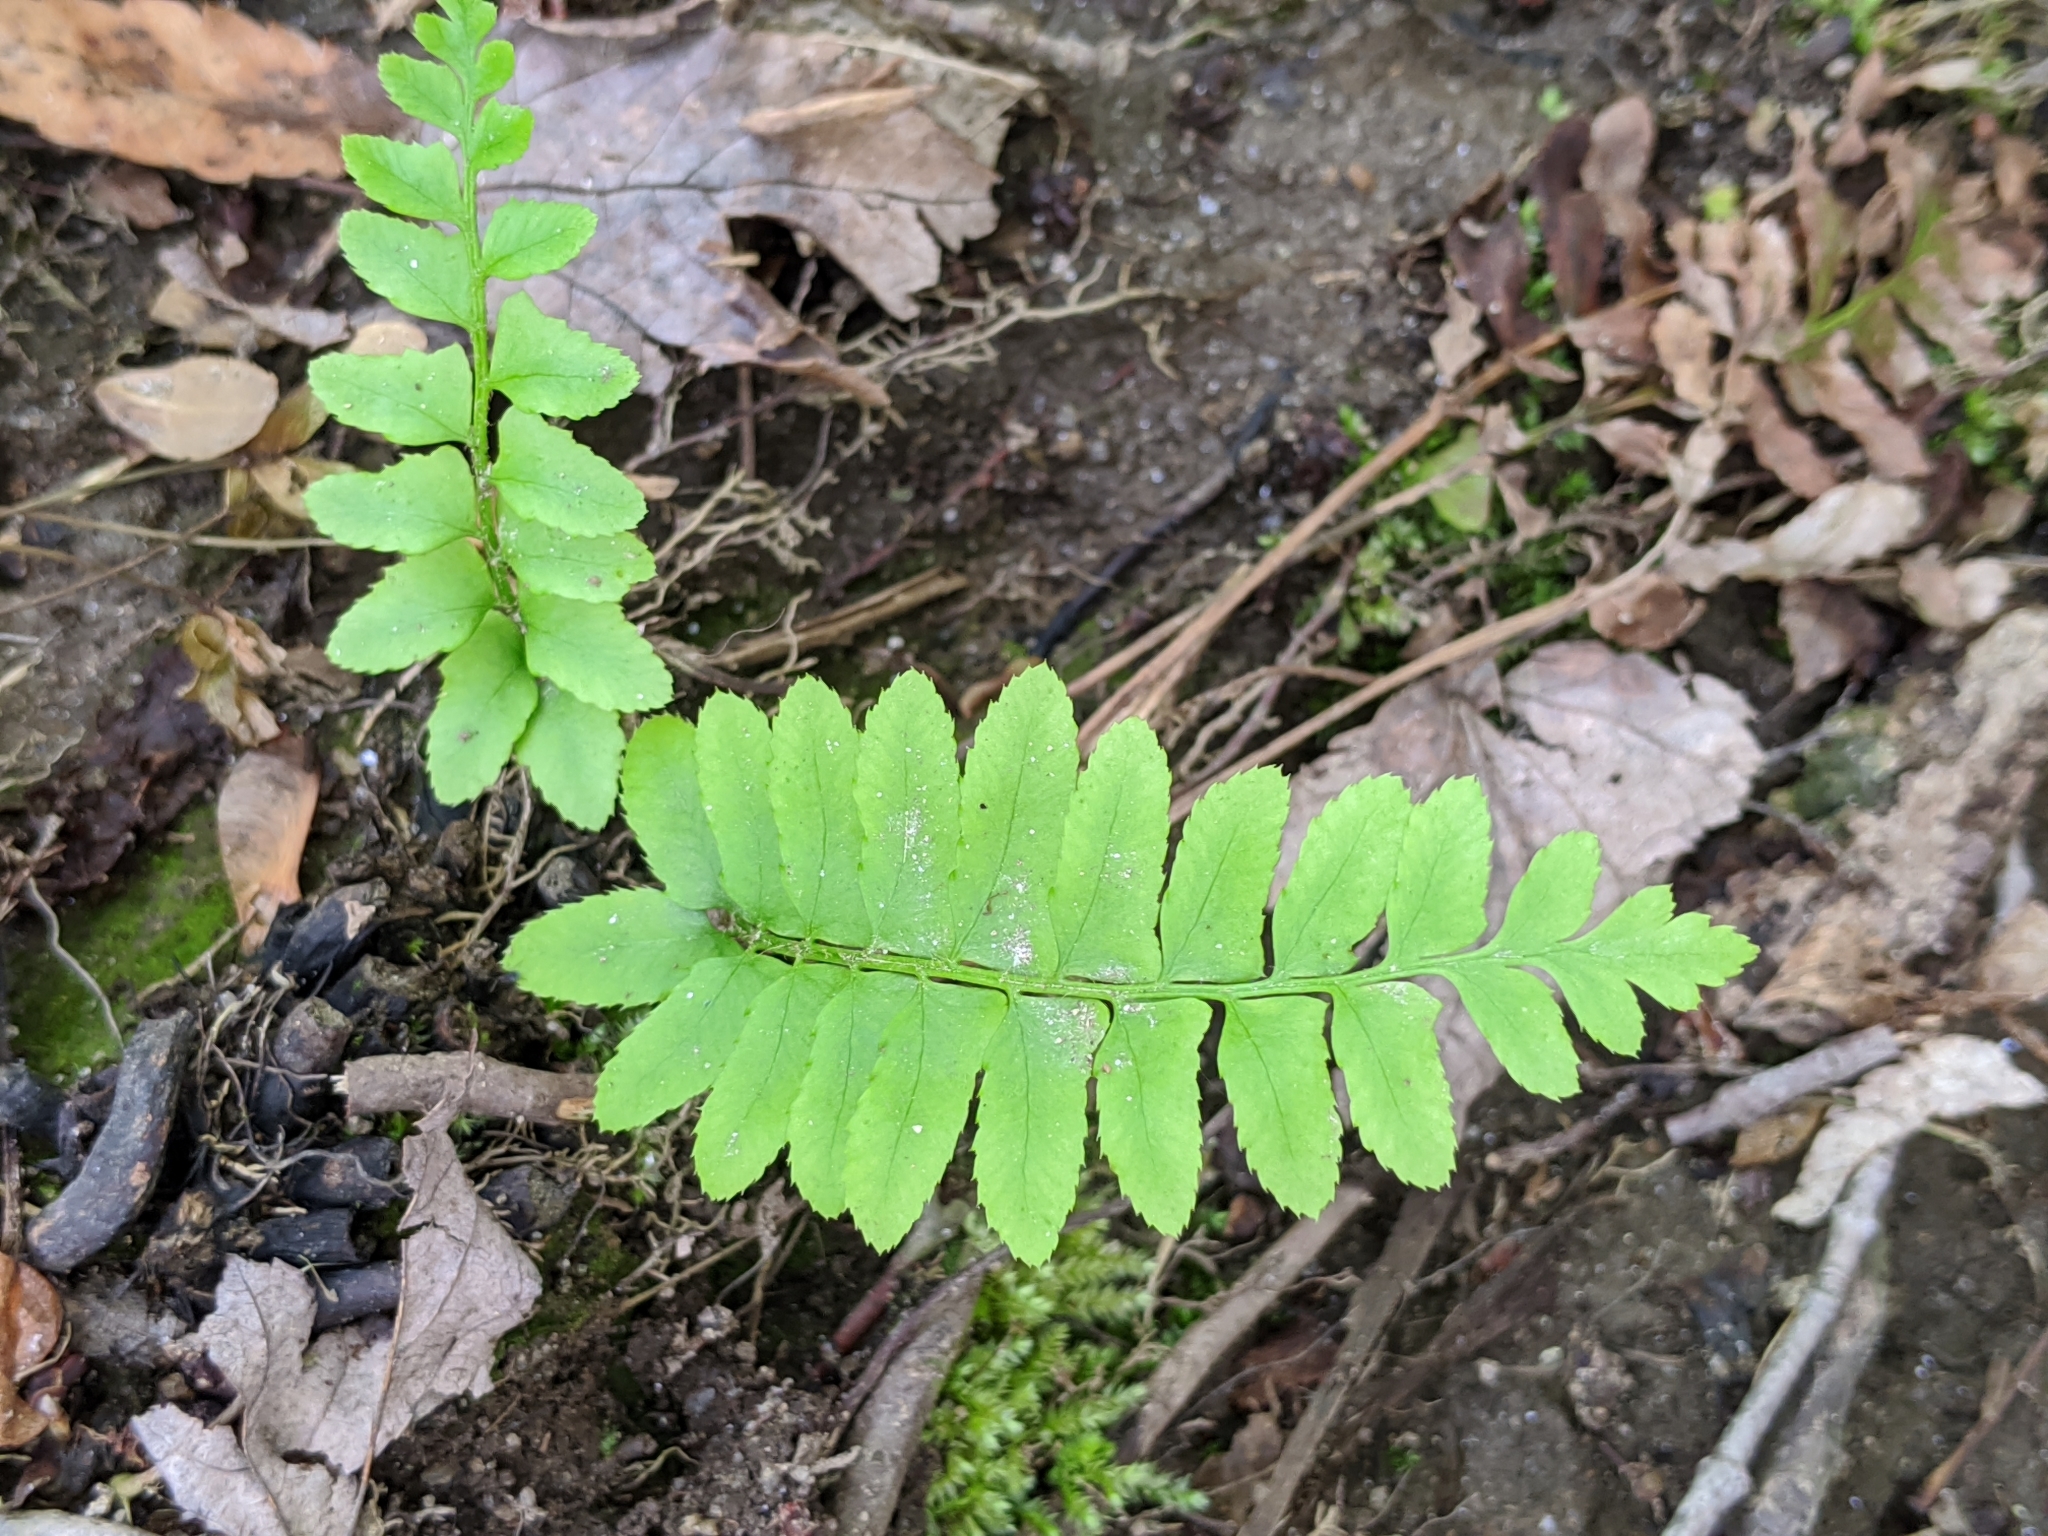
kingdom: Plantae
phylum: Tracheophyta
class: Polypodiopsida
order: Polypodiales
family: Dryopteridaceae
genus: Polystichum
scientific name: Polystichum acrostichoides
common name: Christmas fern
